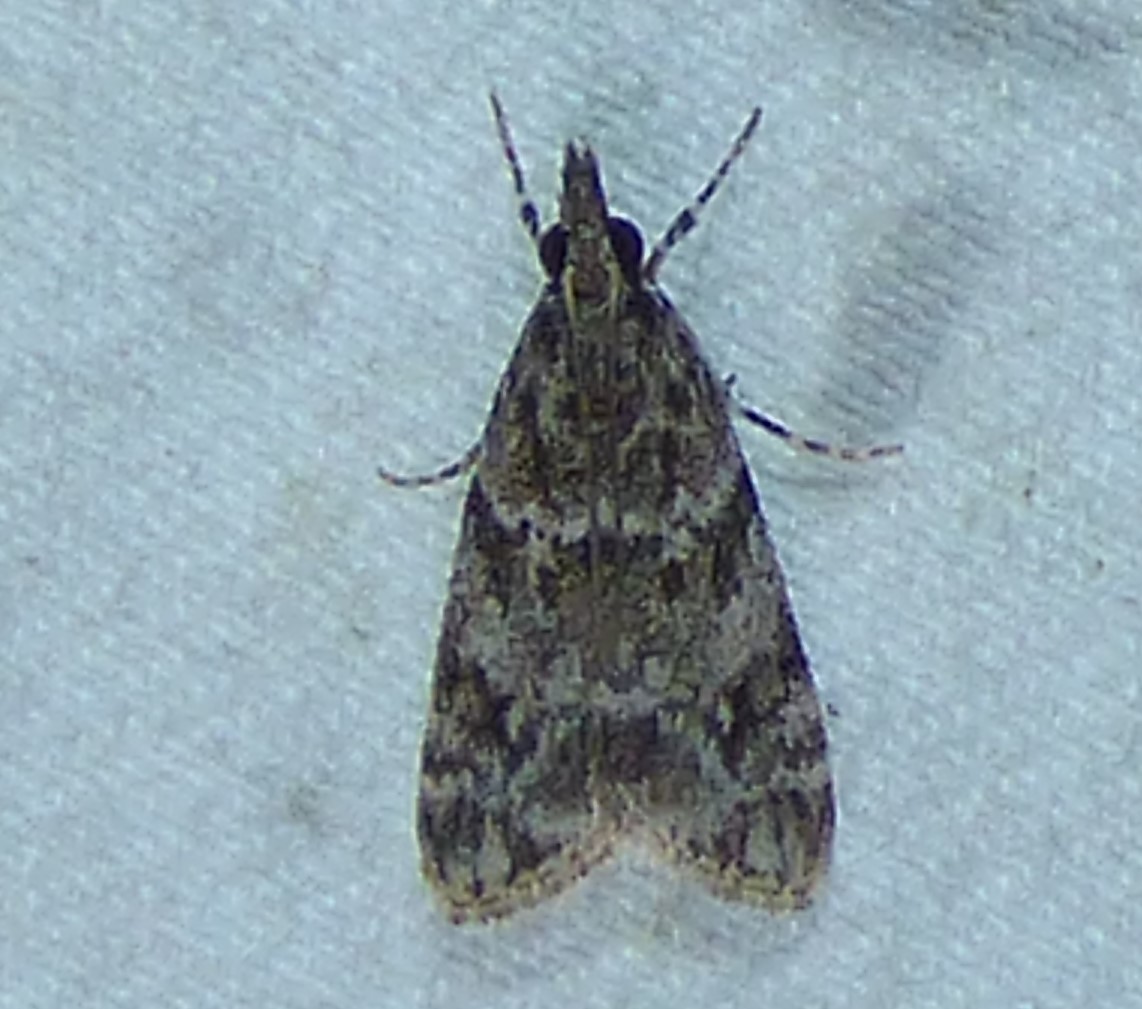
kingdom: Animalia
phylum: Arthropoda
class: Insecta
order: Lepidoptera
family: Crambidae
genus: Eudonia
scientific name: Eudonia heterosalis
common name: Mcdunnough's eudonia
